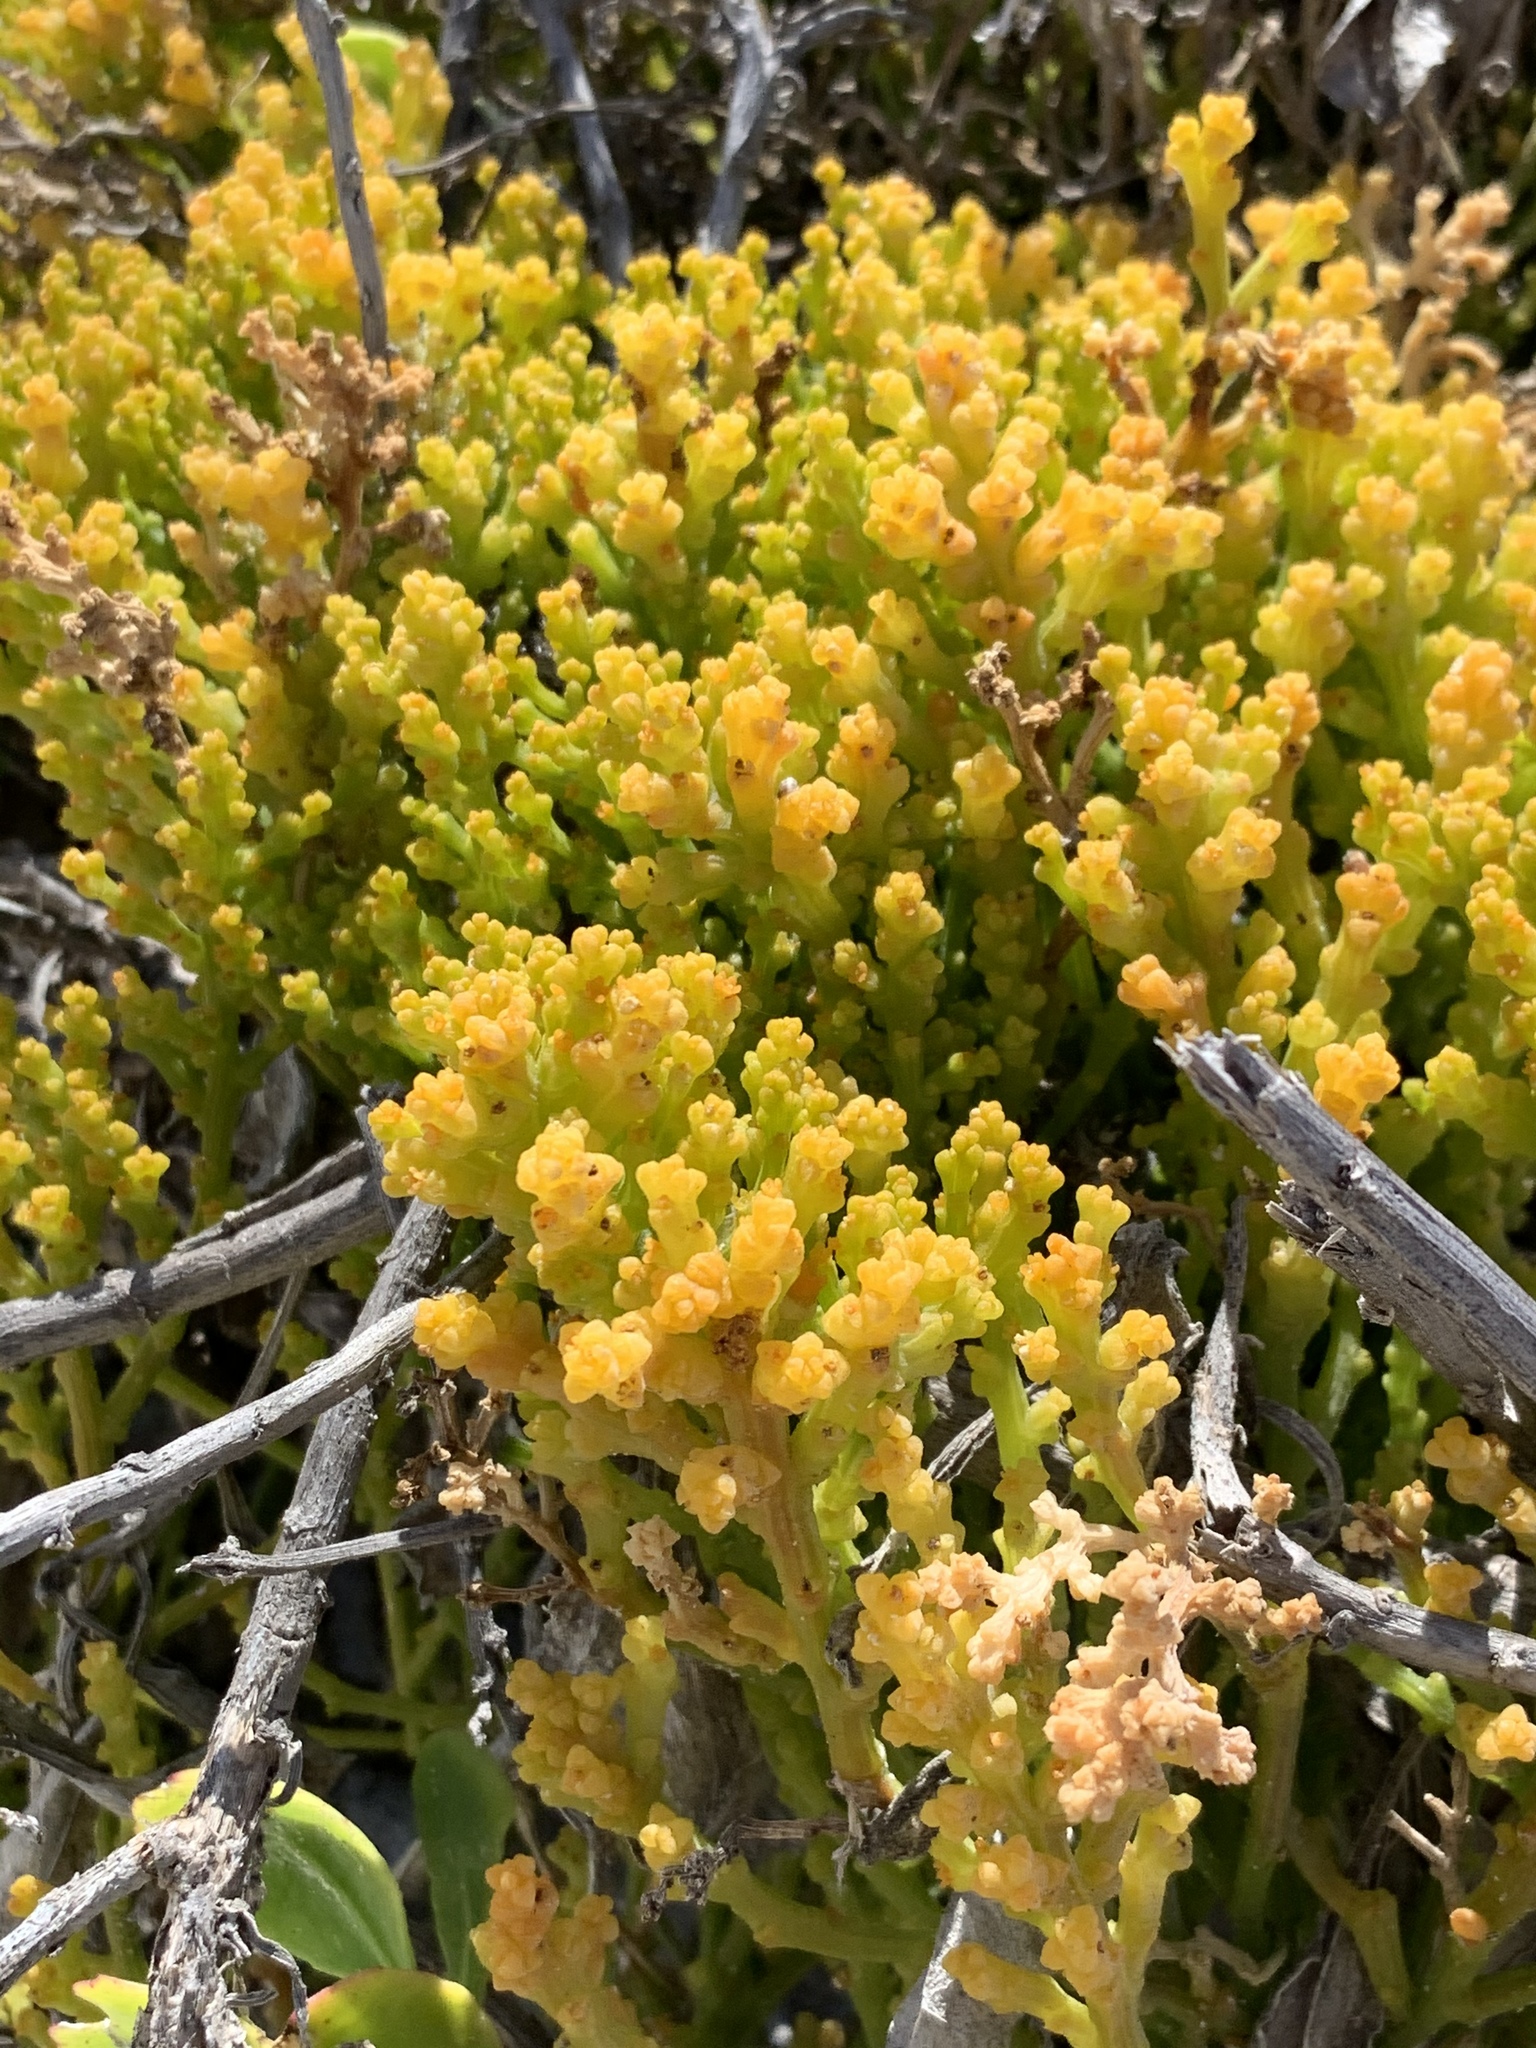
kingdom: Plantae
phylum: Tracheophyta
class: Magnoliopsida
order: Santalales
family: Thesiaceae
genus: Thesium
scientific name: Thesium fragile
